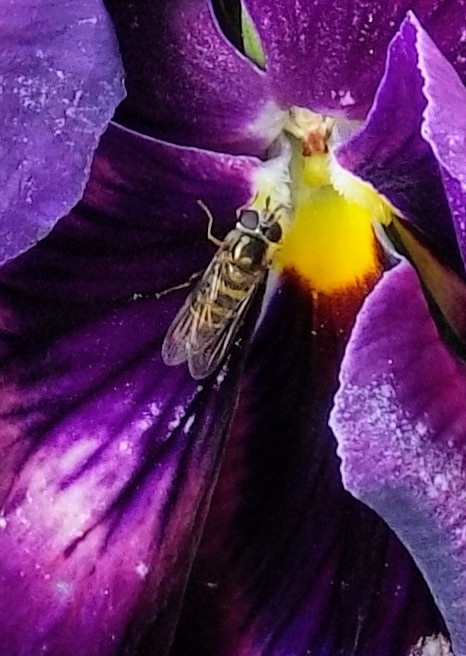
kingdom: Animalia
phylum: Arthropoda
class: Insecta
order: Diptera
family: Syrphidae
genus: Eupeodes
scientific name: Eupeodes
